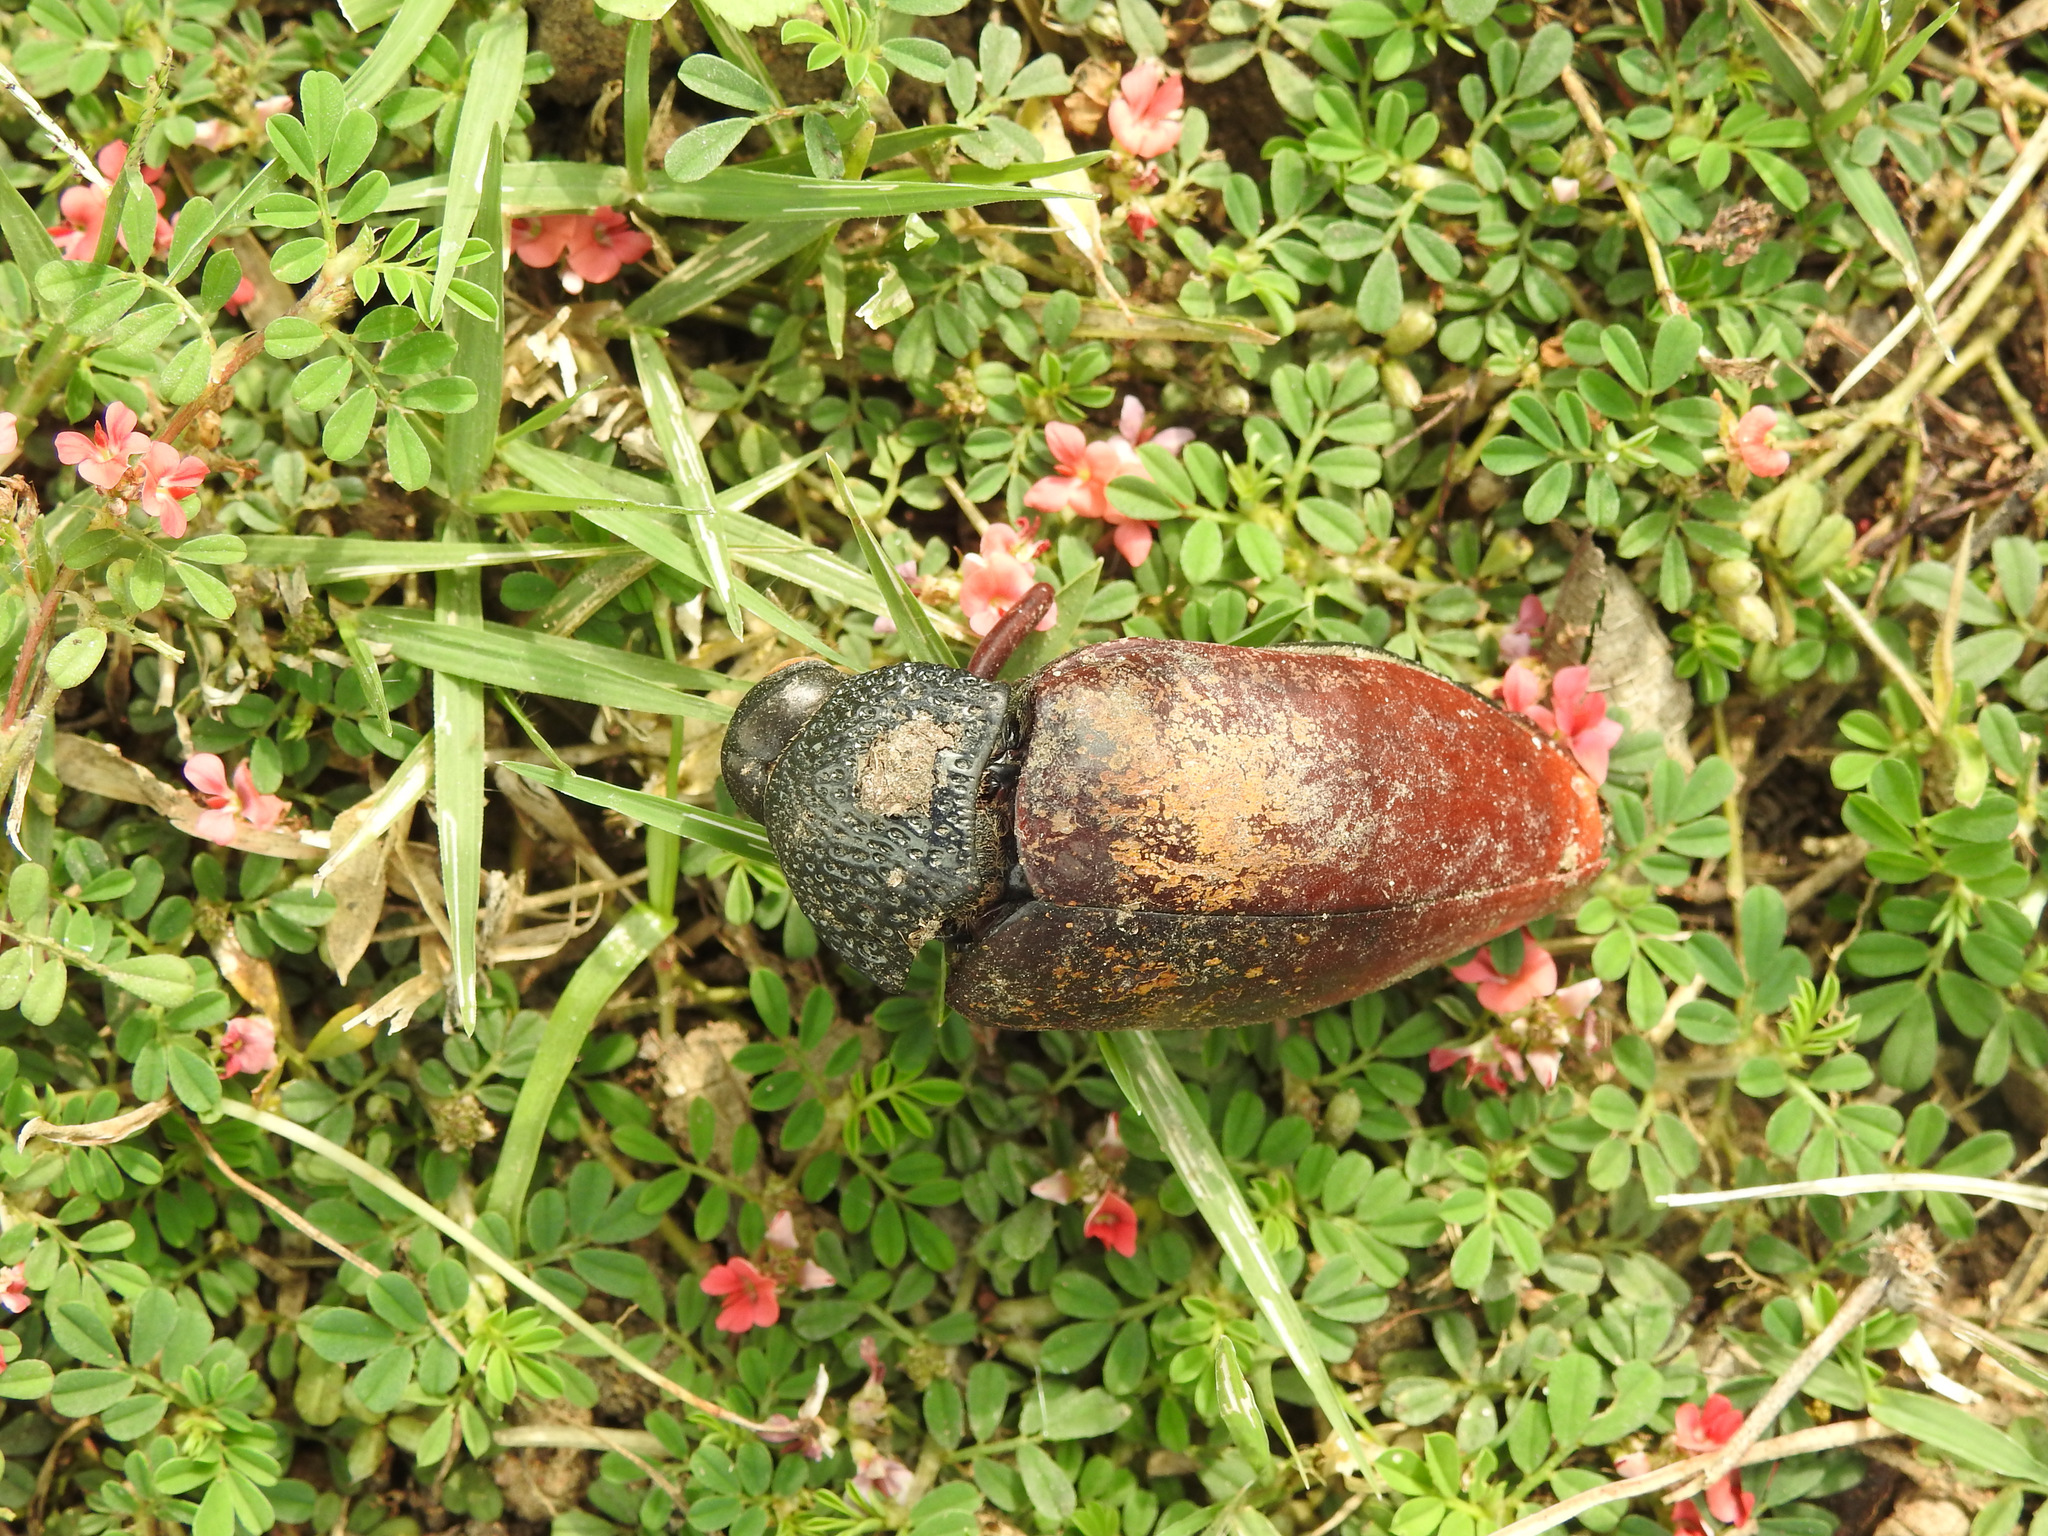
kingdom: Animalia
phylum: Arthropoda
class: Insecta
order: Coleoptera
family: Buprestidae
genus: Sternocera
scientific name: Sternocera chrysis
